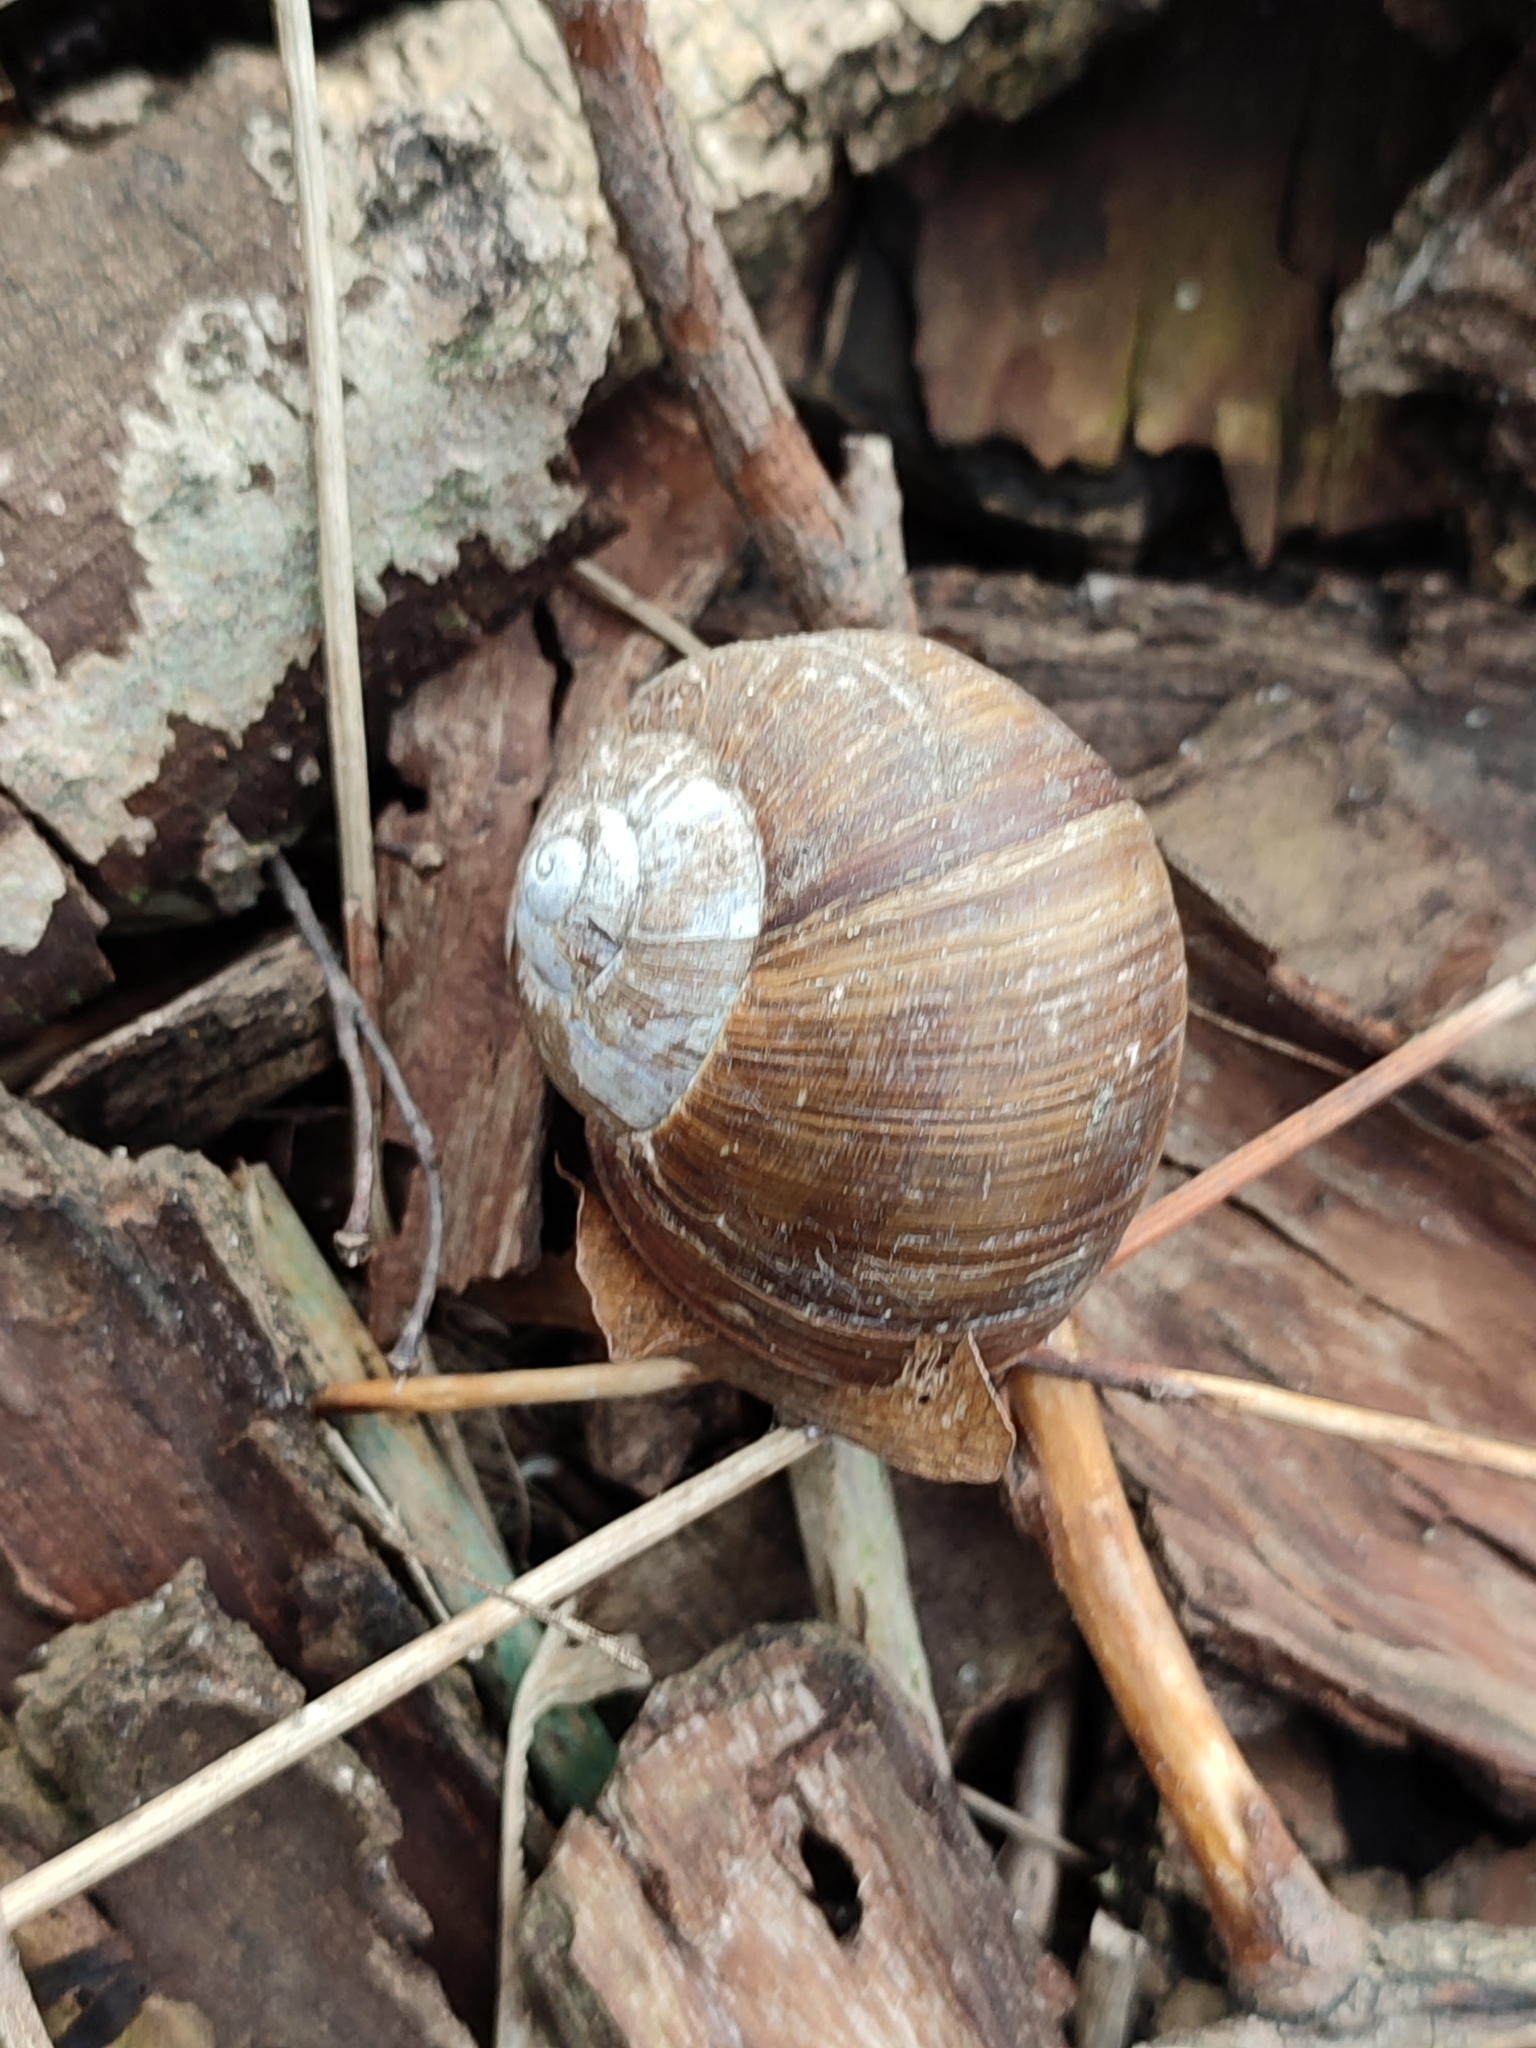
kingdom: Animalia
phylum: Mollusca
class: Gastropoda
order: Stylommatophora
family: Helicidae
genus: Helix
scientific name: Helix pomatia
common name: Roman snail
